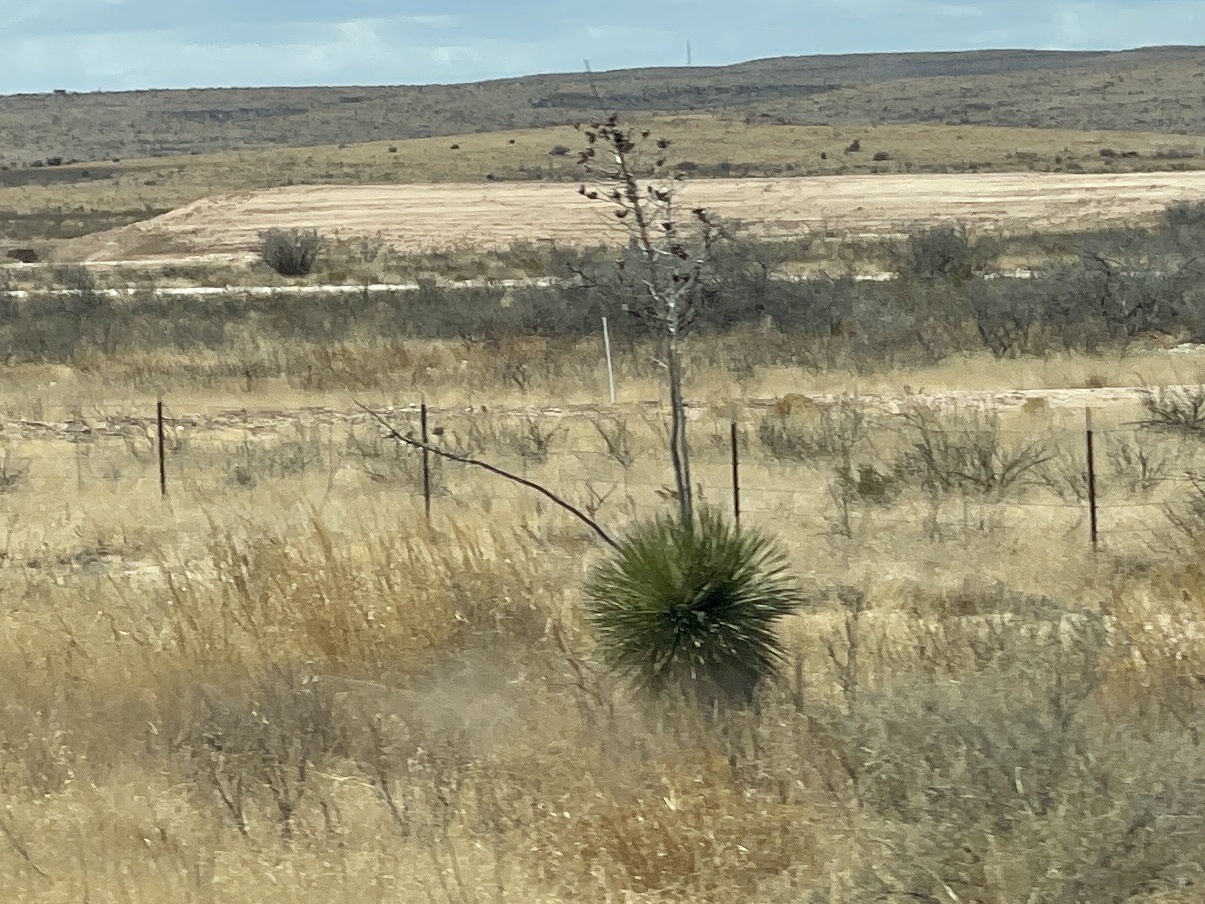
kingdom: Plantae
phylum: Tracheophyta
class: Liliopsida
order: Asparagales
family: Asparagaceae
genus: Yucca
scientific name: Yucca elata
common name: Palmella
